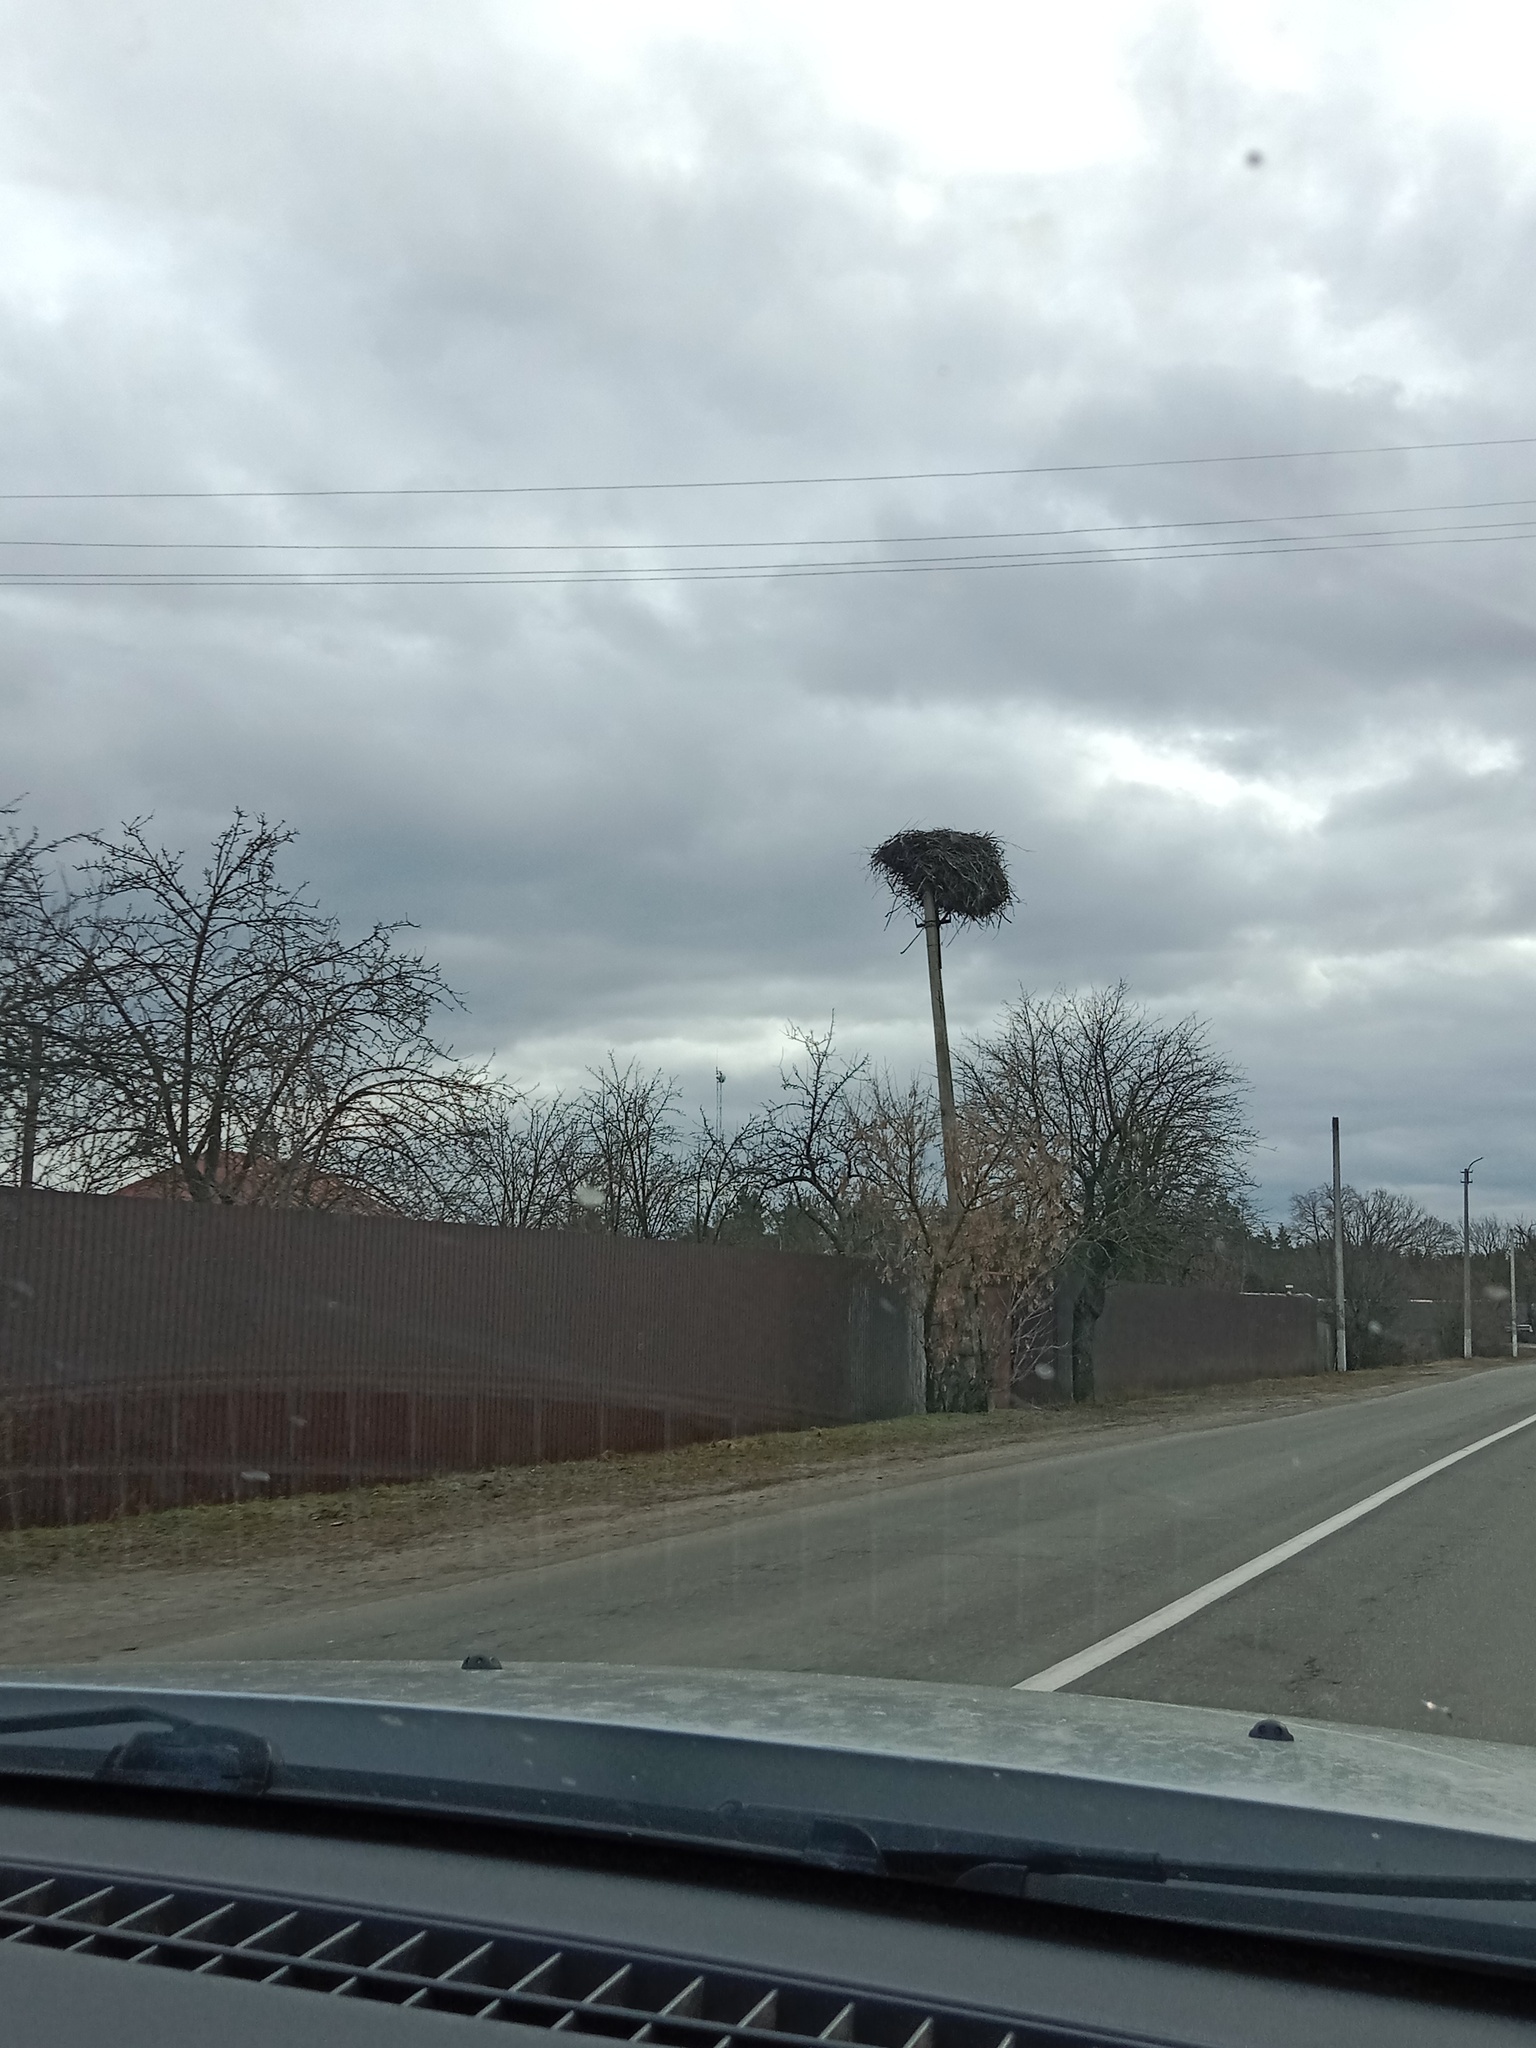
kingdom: Animalia
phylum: Chordata
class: Aves
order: Ciconiiformes
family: Ciconiidae
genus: Ciconia
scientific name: Ciconia ciconia
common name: White stork
